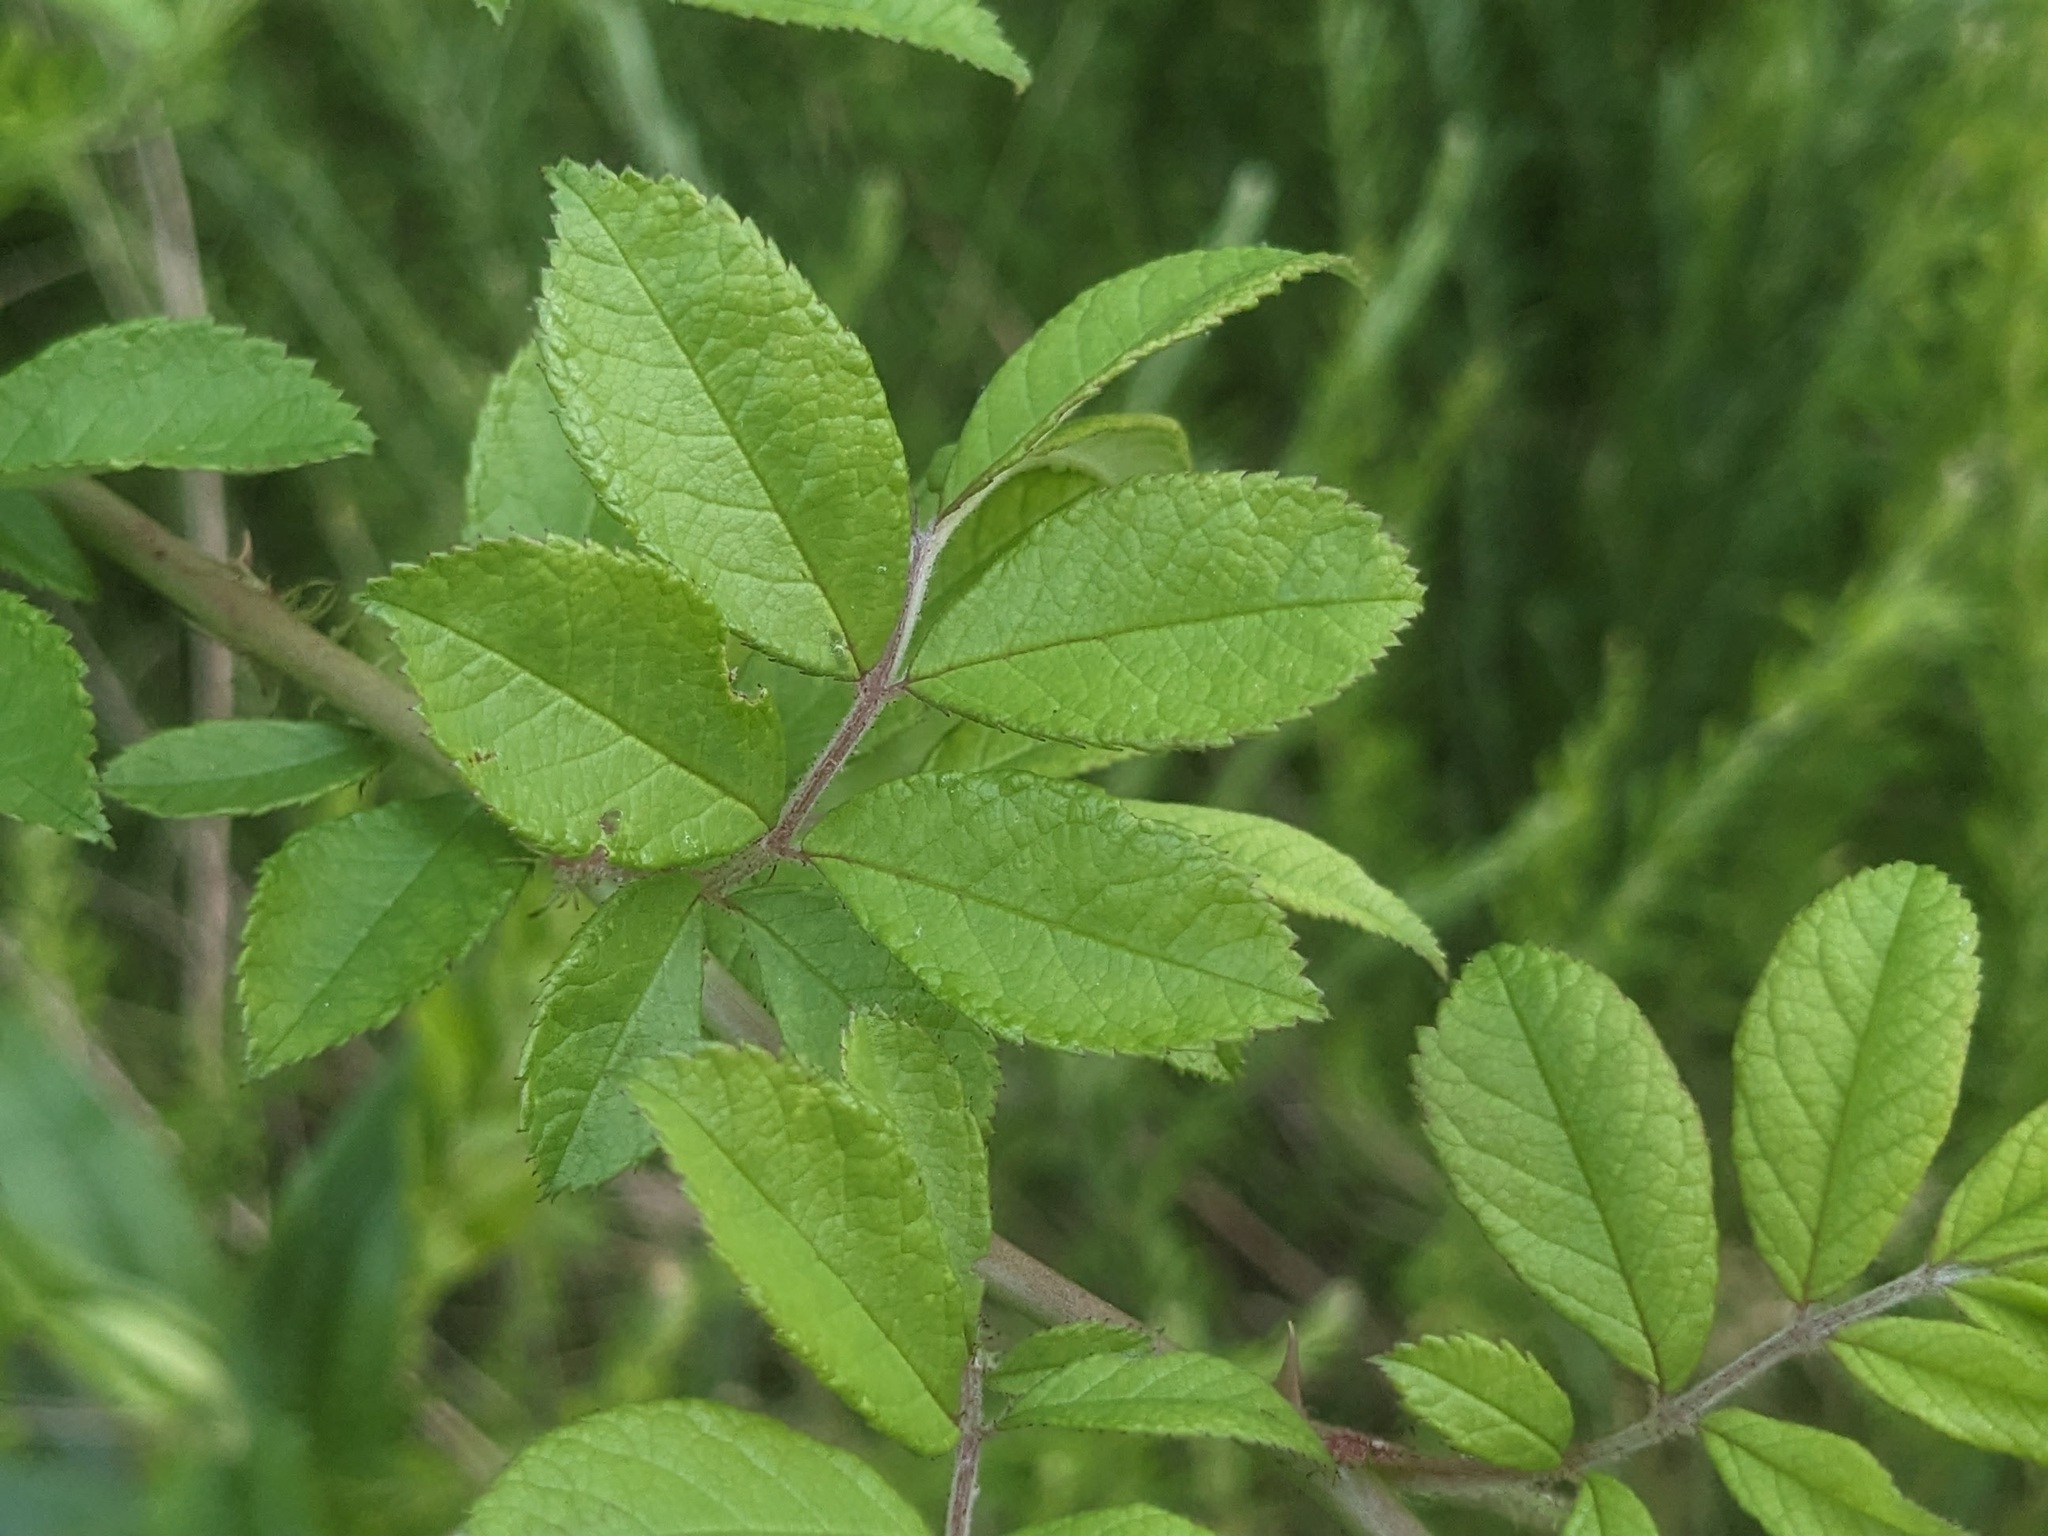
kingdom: Plantae
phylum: Tracheophyta
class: Magnoliopsida
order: Rosales
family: Rosaceae
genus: Rosa
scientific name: Rosa multiflora
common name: Multiflora rose
